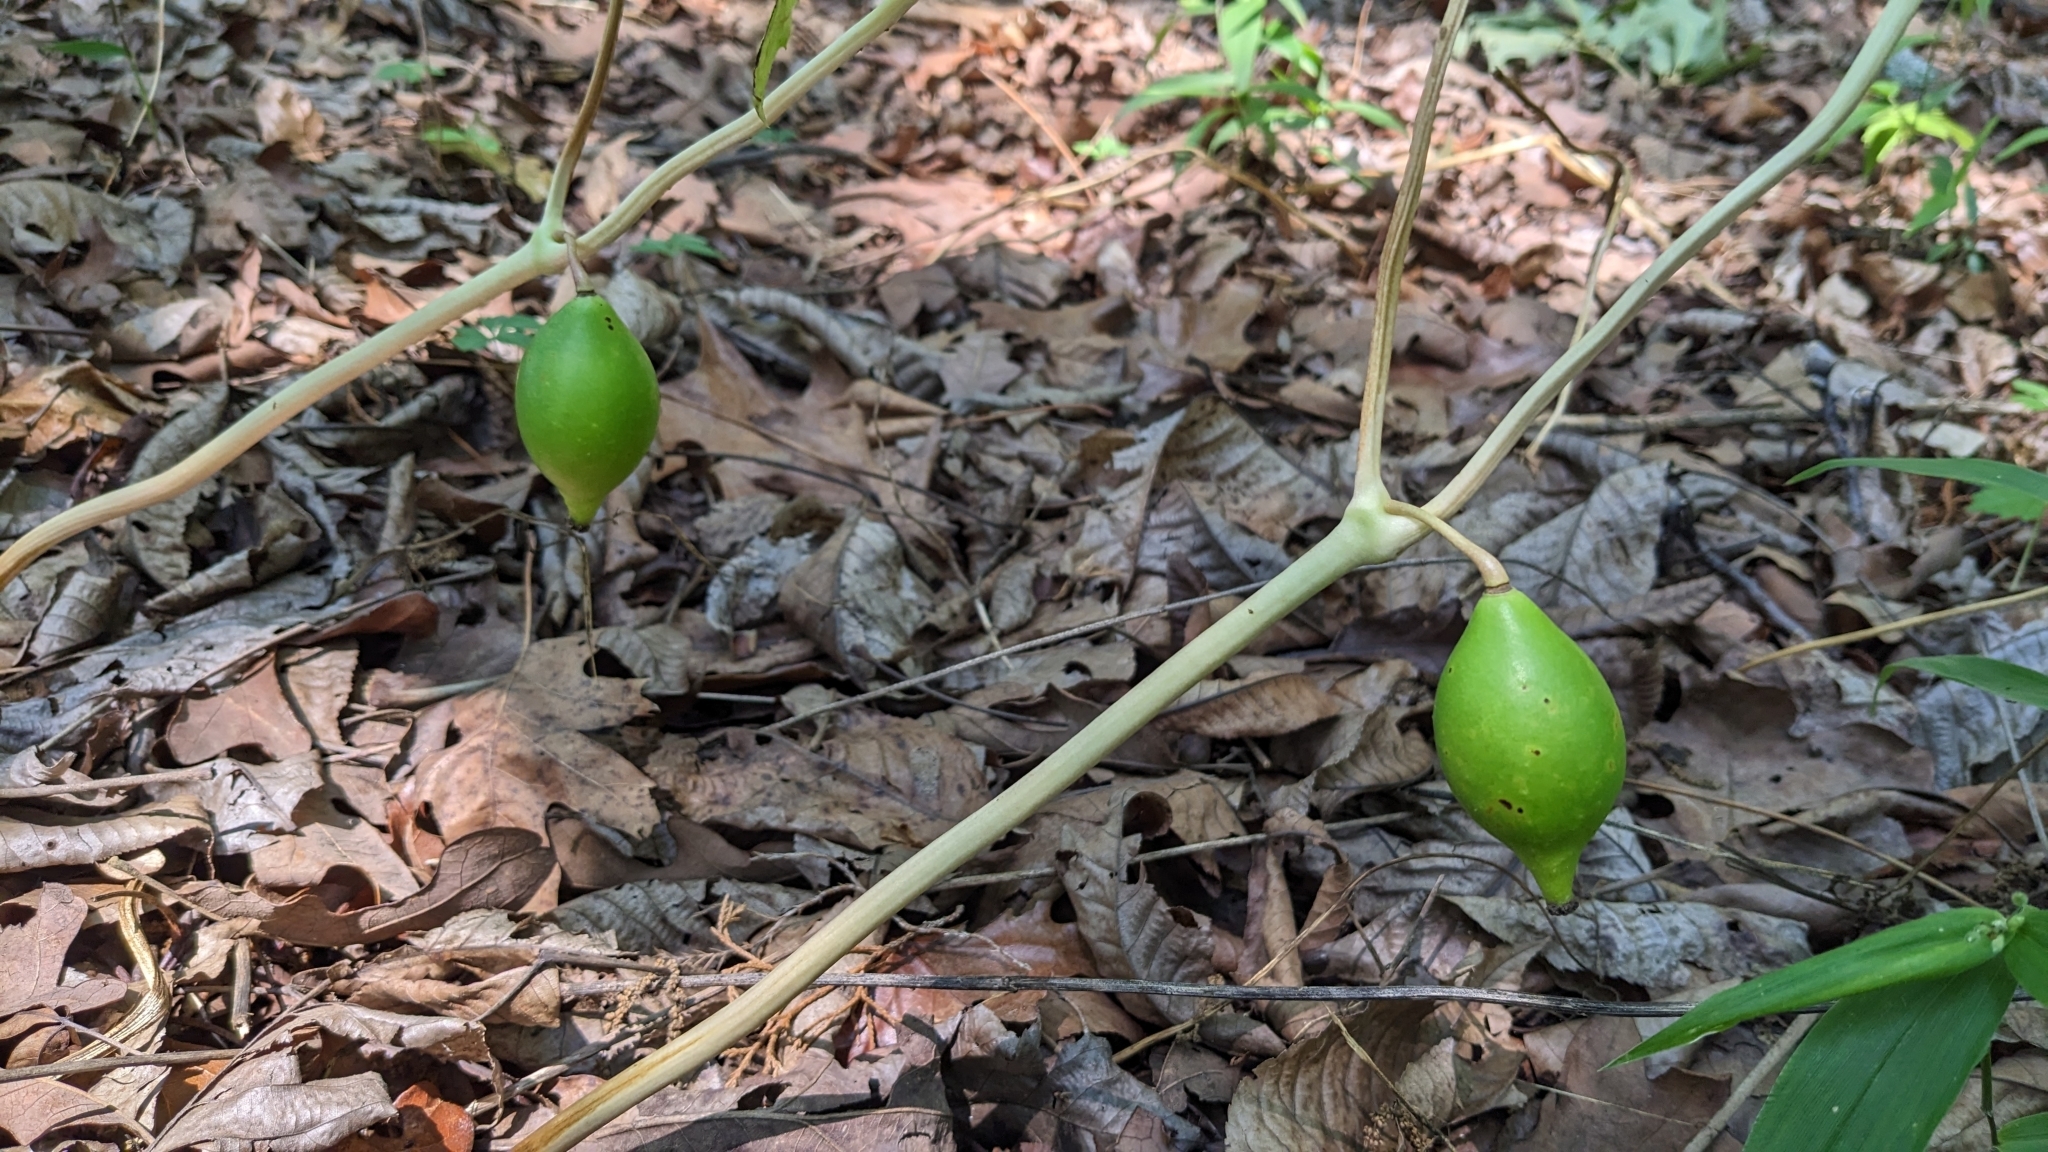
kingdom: Plantae
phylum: Tracheophyta
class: Magnoliopsida
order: Ranunculales
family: Berberidaceae
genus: Podophyllum
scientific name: Podophyllum peltatum
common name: Wild mandrake
